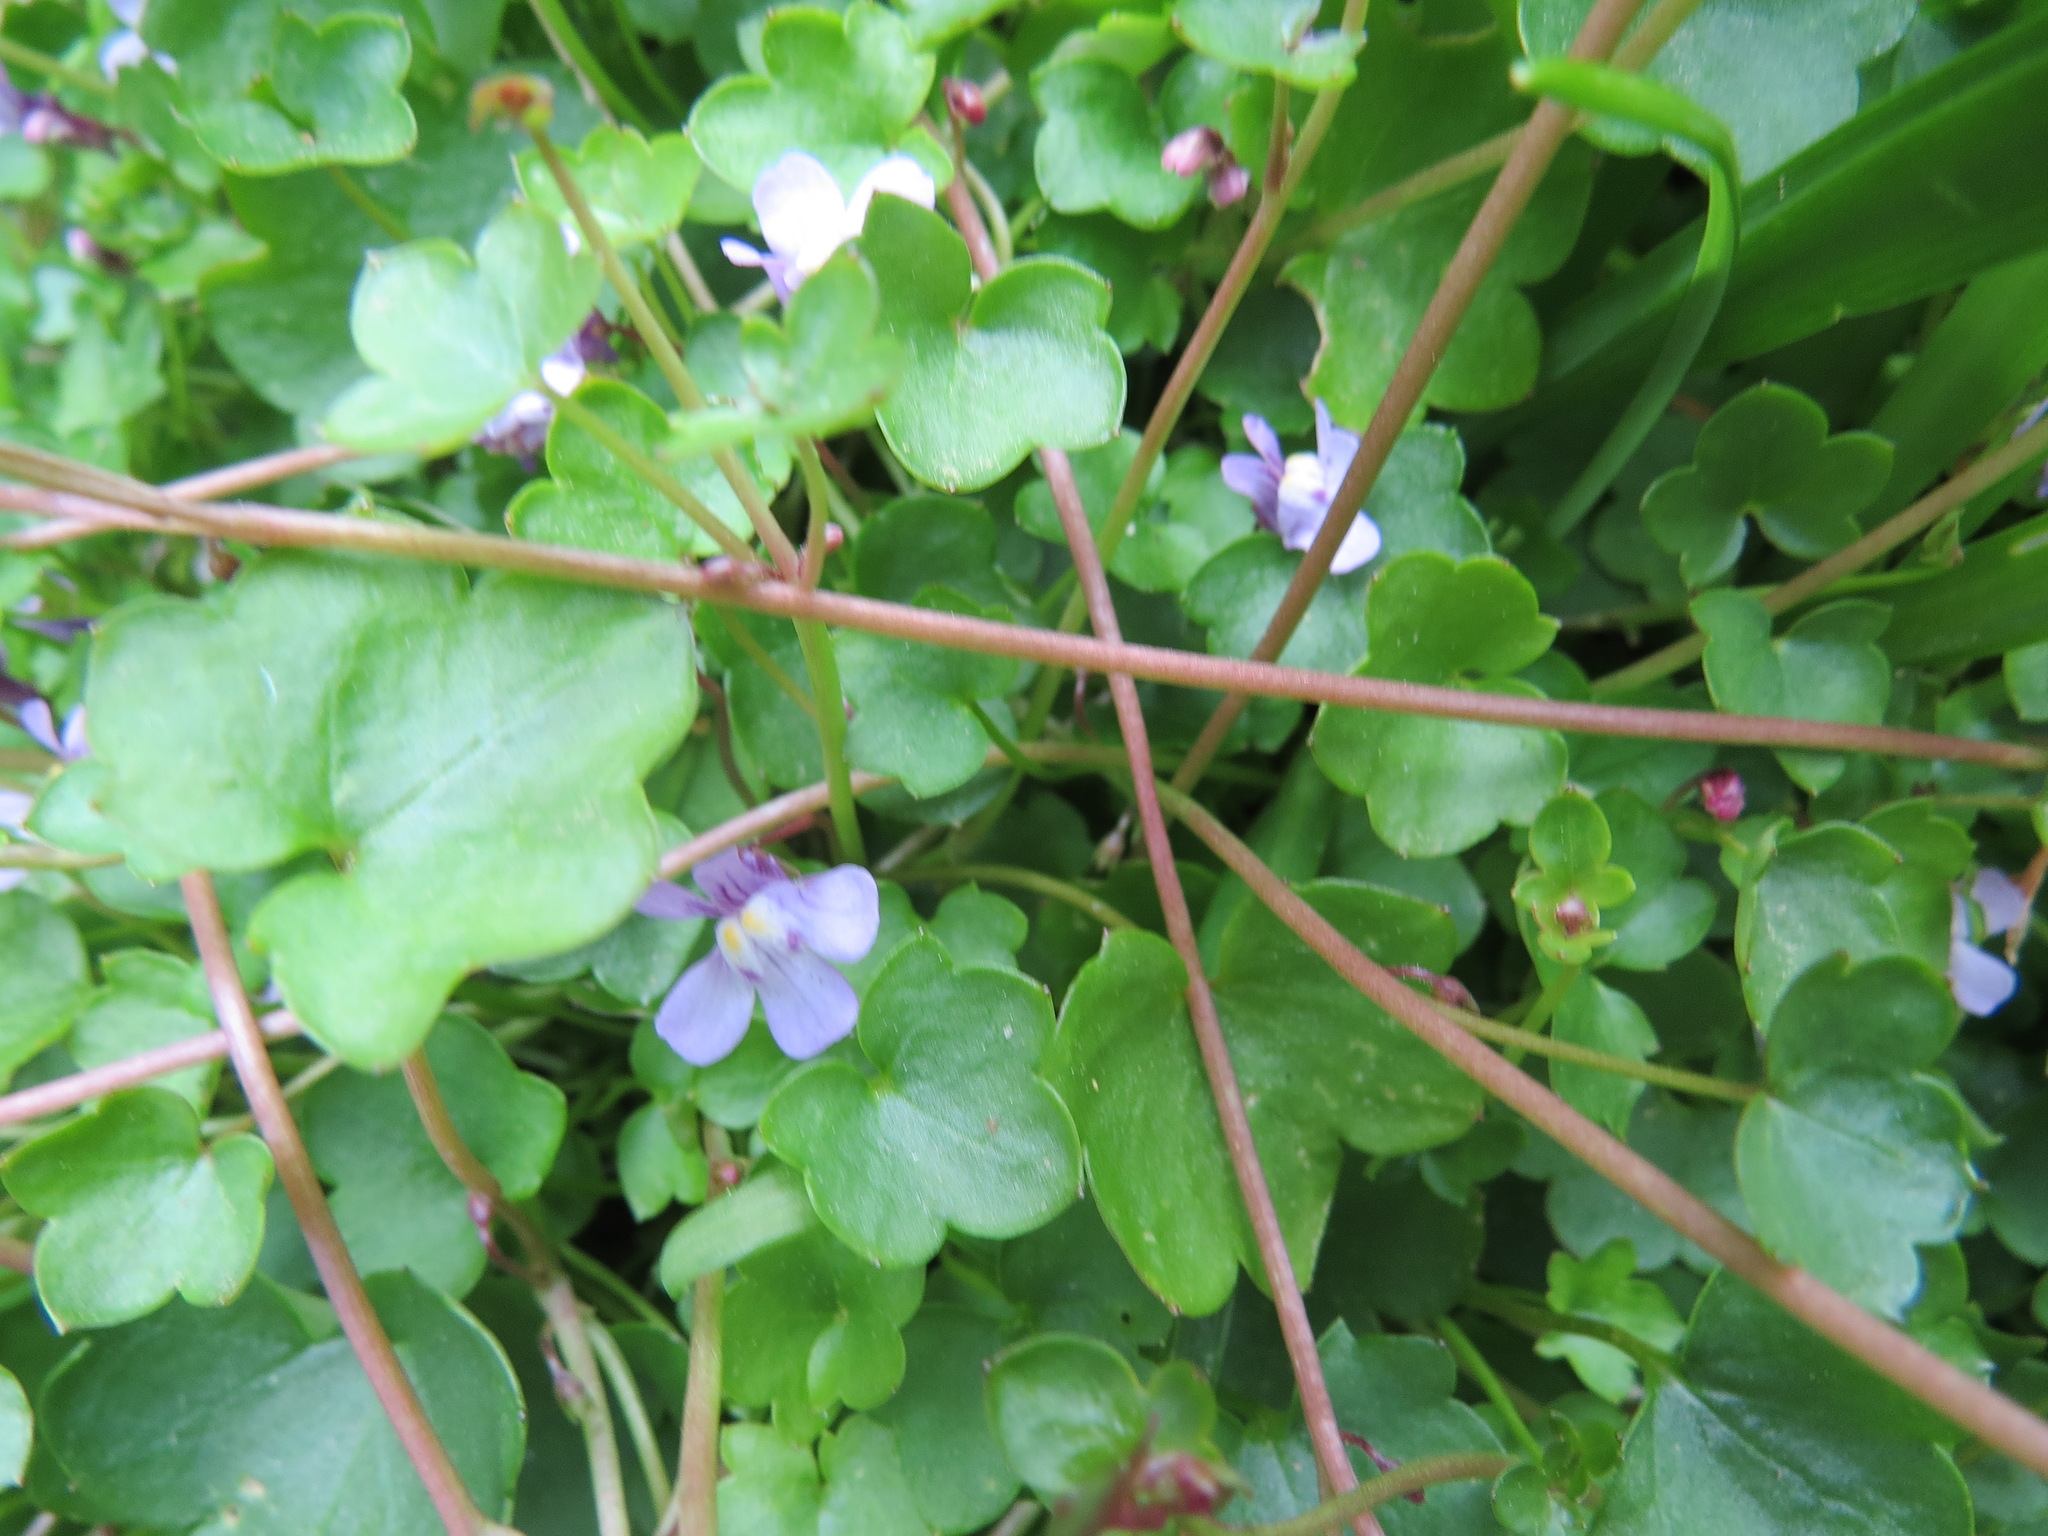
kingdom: Plantae
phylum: Tracheophyta
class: Magnoliopsida
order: Lamiales
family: Plantaginaceae
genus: Cymbalaria
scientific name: Cymbalaria muralis
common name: Ivy-leaved toadflax
